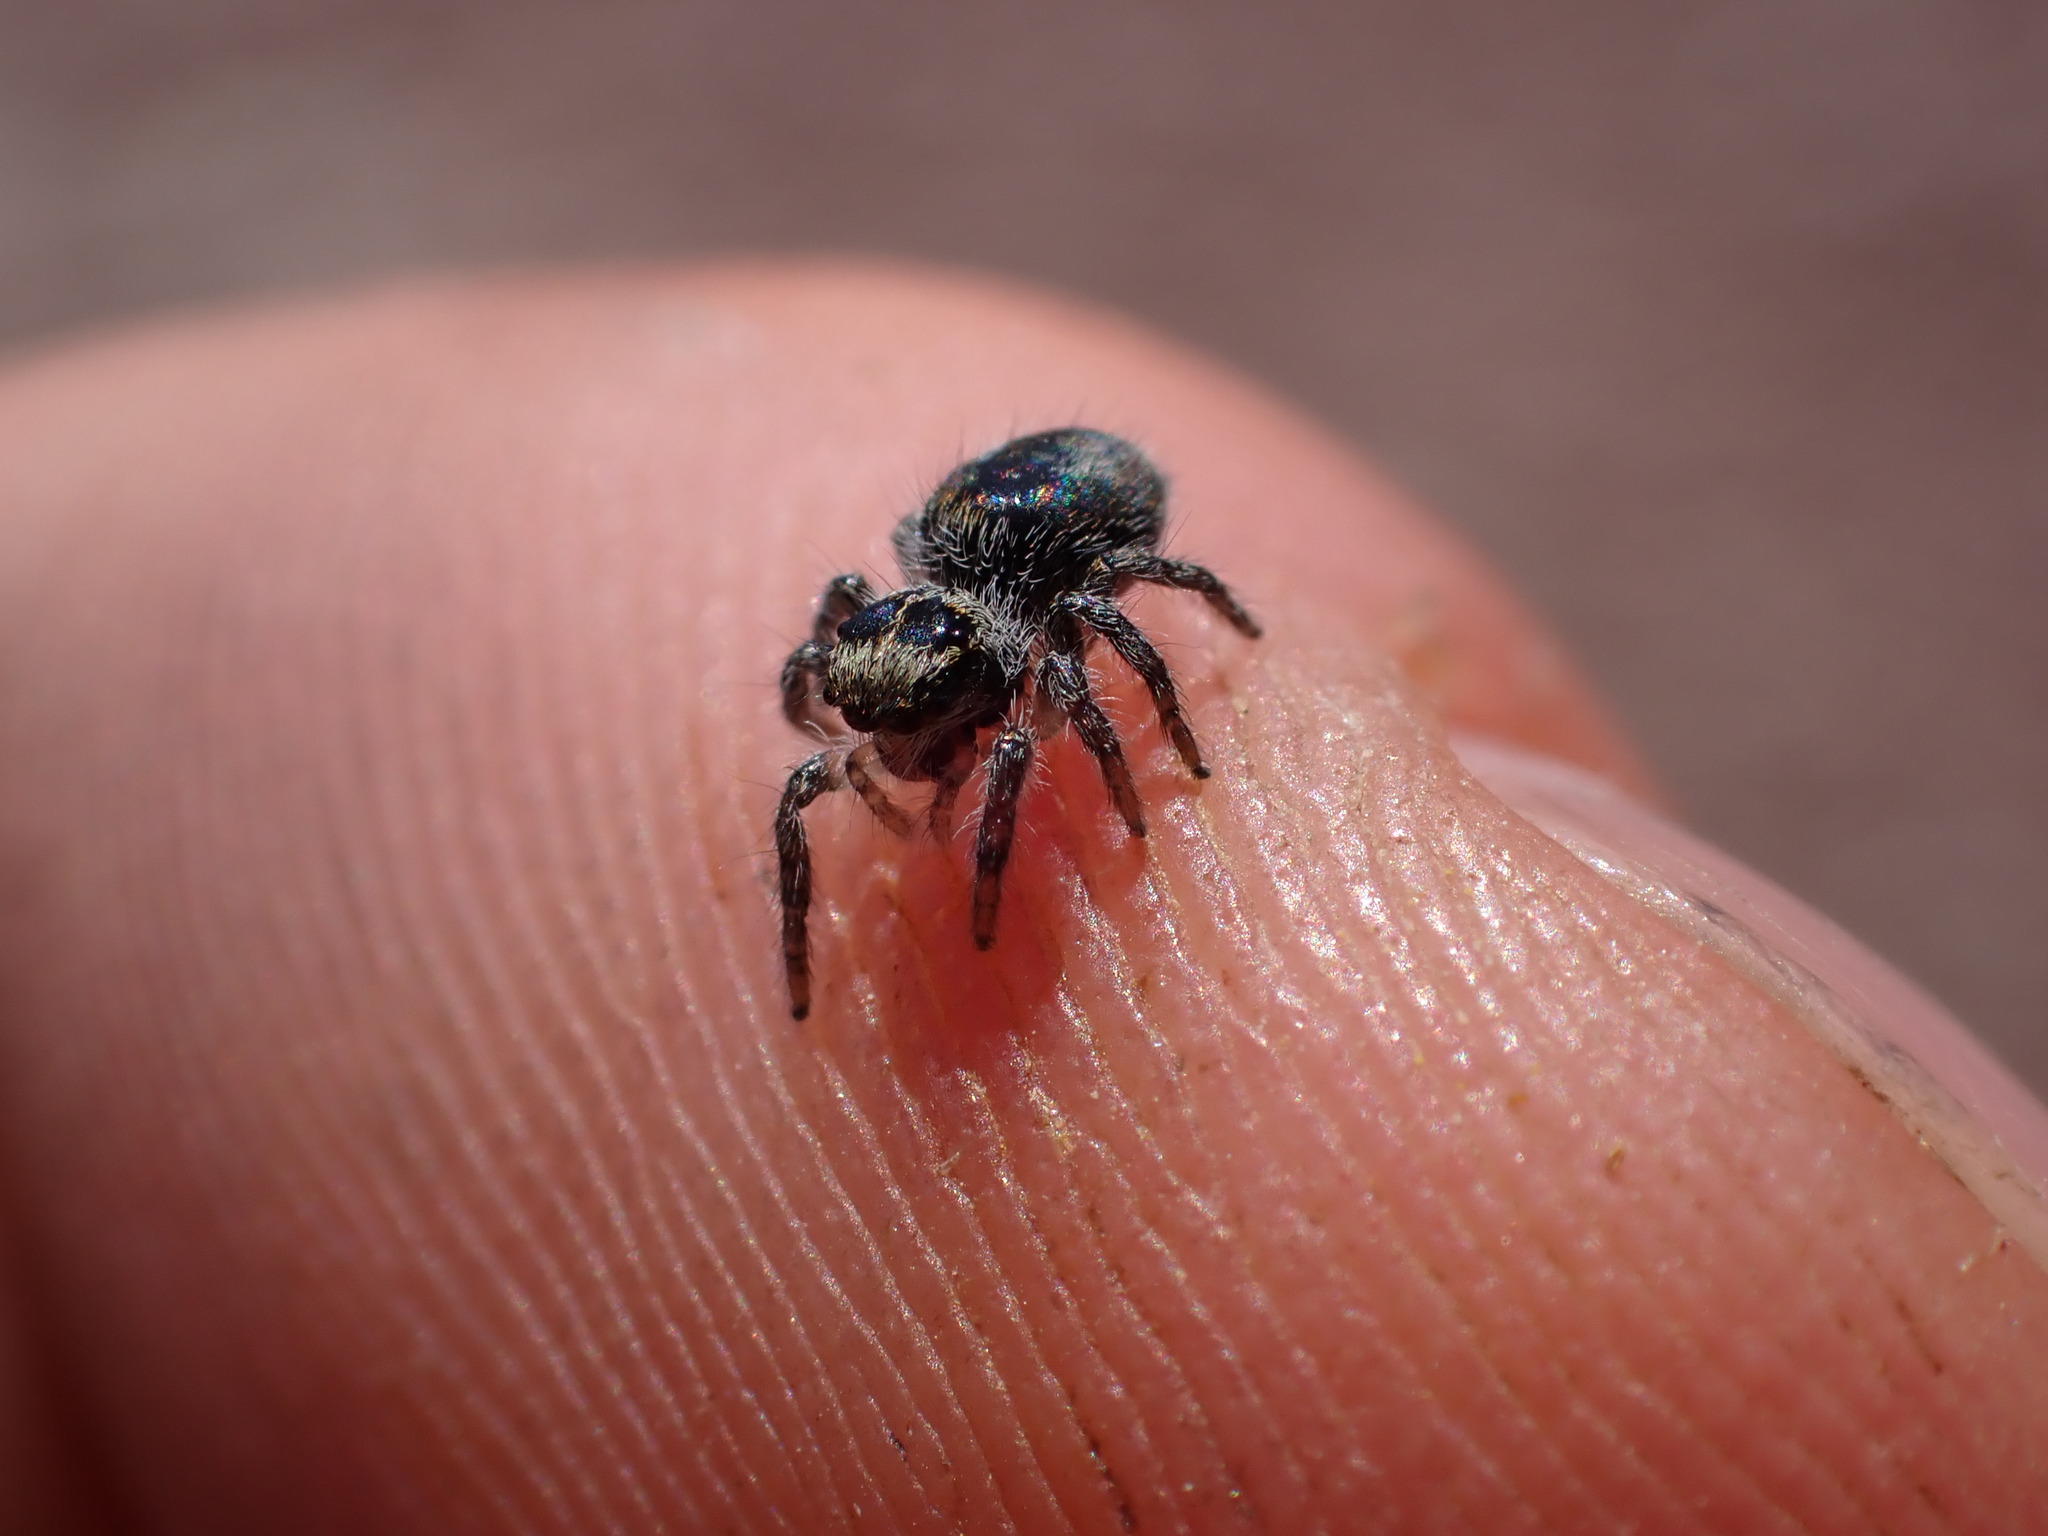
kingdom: Animalia
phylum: Arthropoda
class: Arachnida
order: Araneae
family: Salticidae
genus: Philaeus
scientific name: Philaeus chrysops
